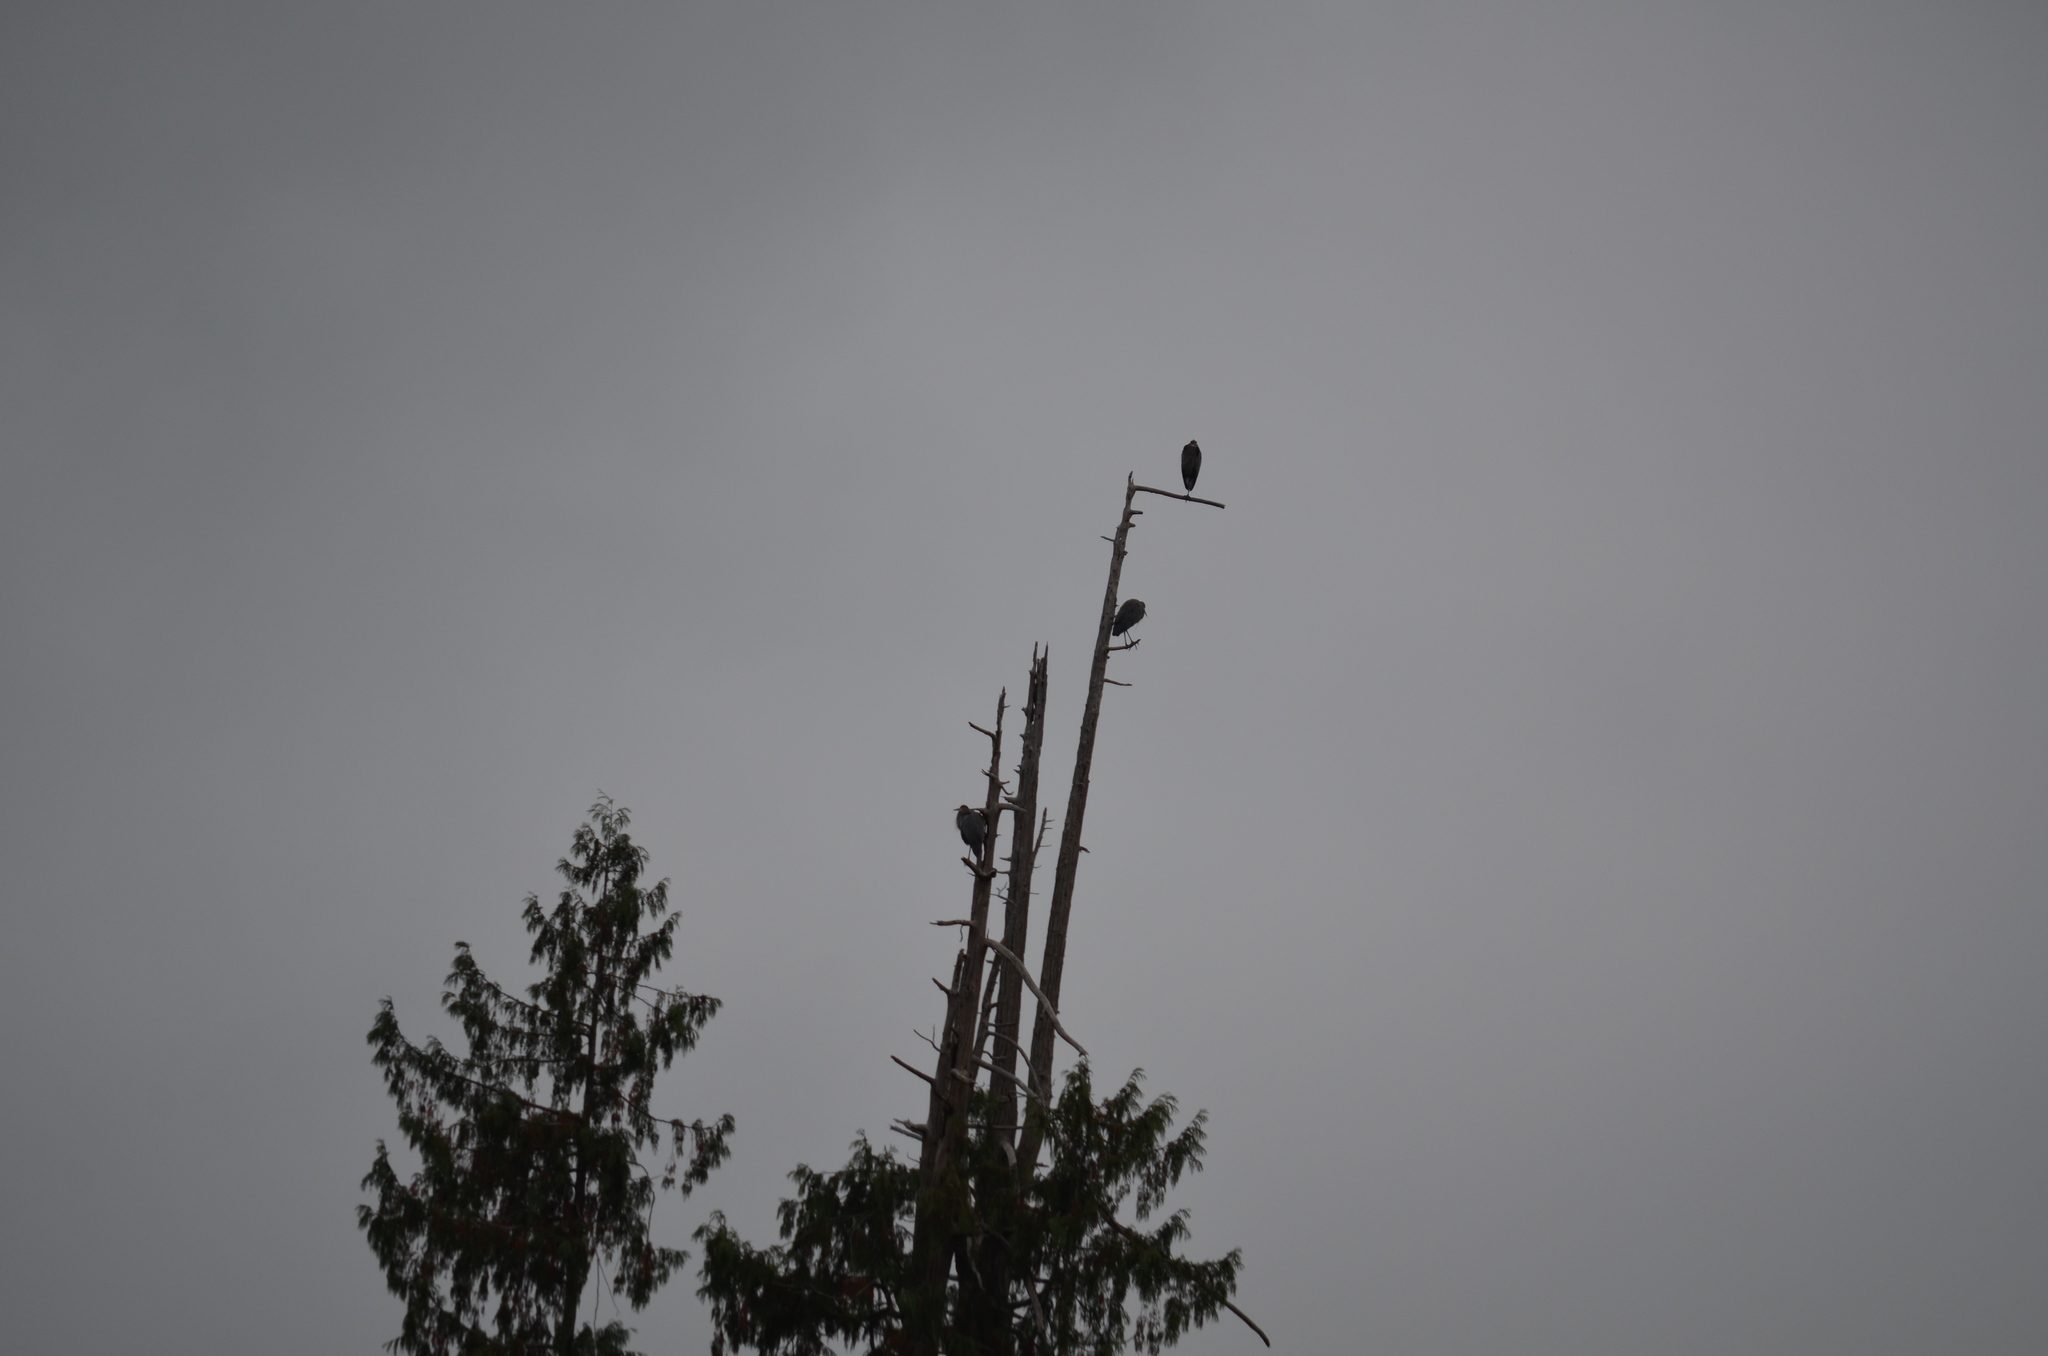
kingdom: Animalia
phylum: Chordata
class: Aves
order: Pelecaniformes
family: Ardeidae
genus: Ardea
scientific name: Ardea herodias
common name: Great blue heron
